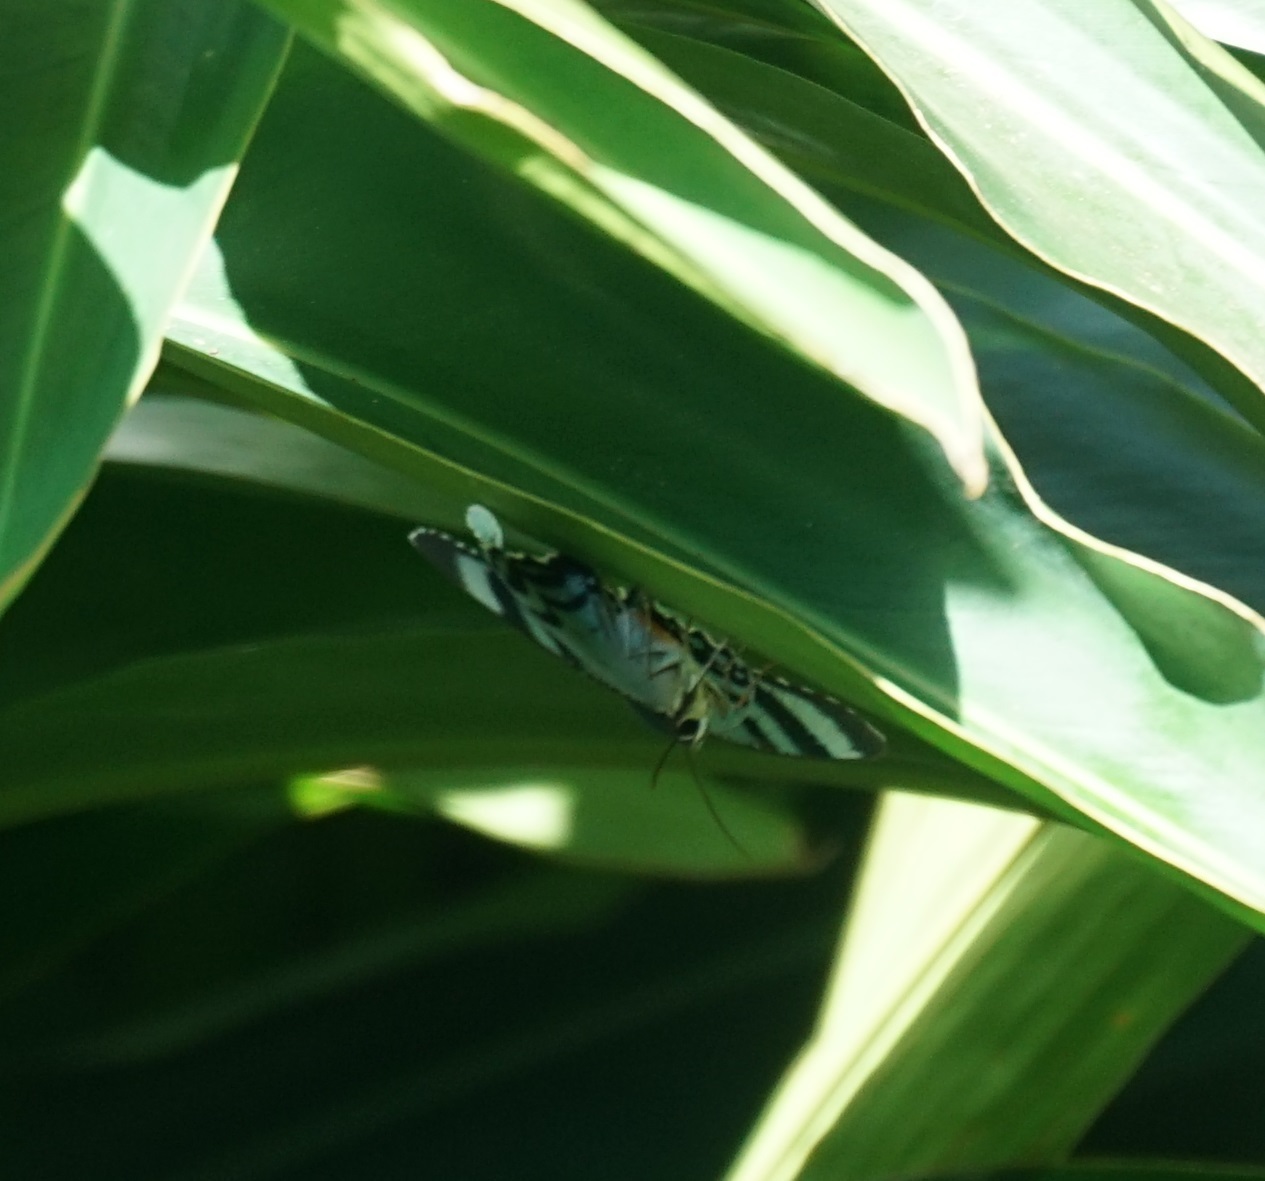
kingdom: Animalia
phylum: Arthropoda
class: Insecta
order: Lepidoptera
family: Uraniidae
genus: Alcides
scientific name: Alcides metaurus
